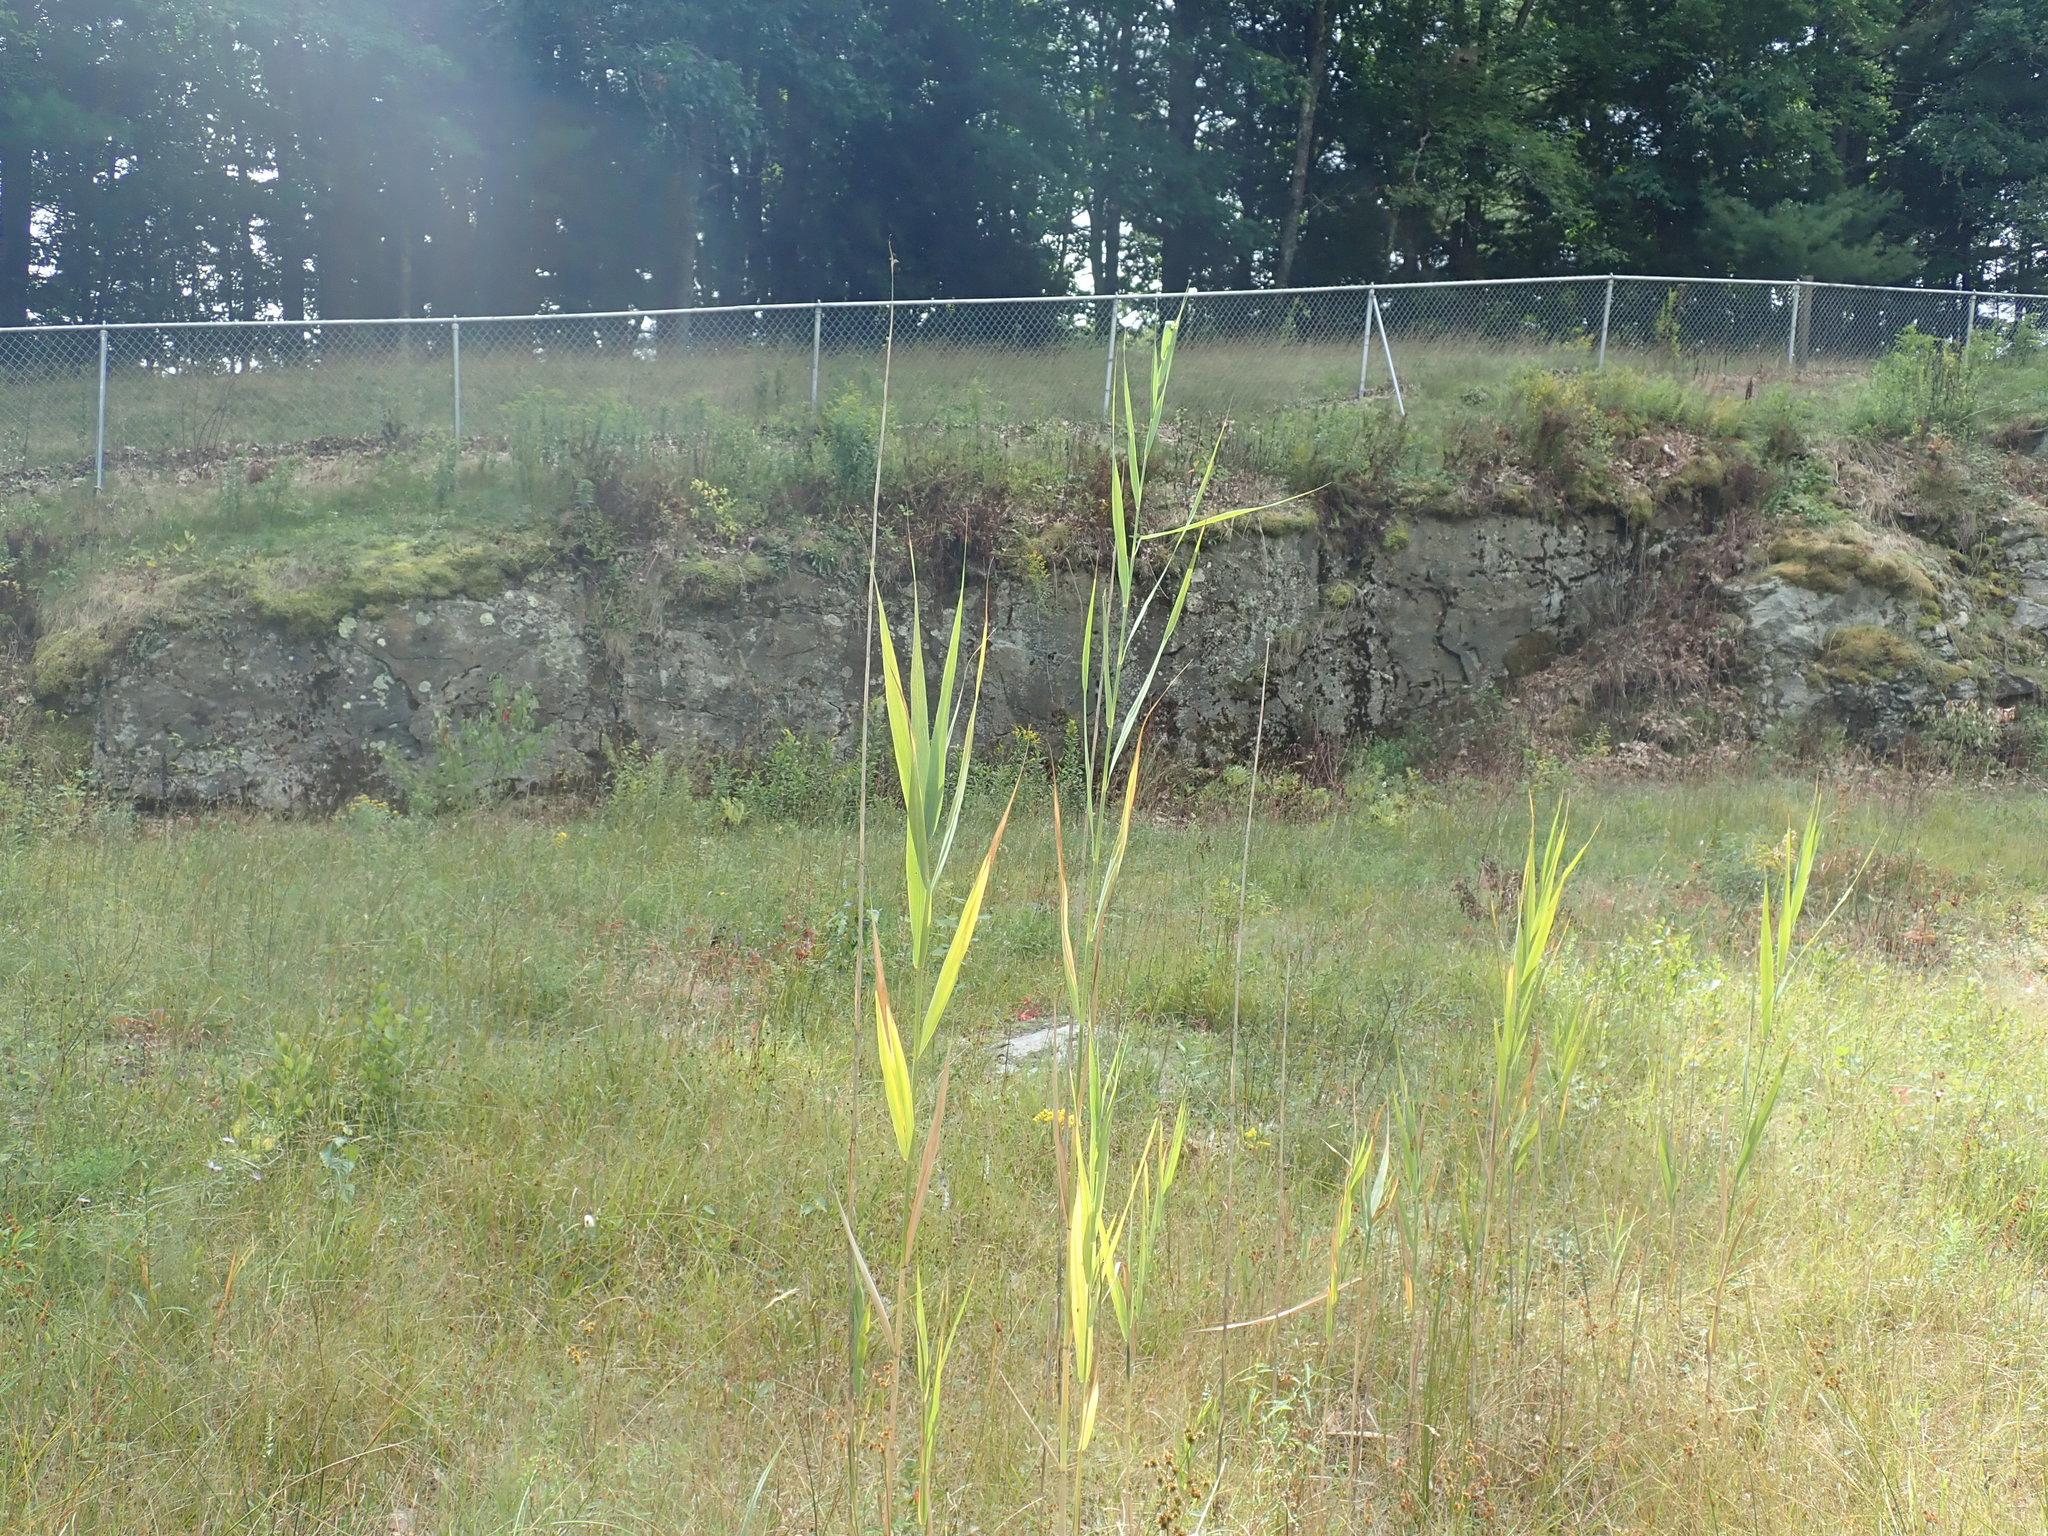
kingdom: Plantae
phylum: Tracheophyta
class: Liliopsida
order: Poales
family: Poaceae
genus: Phragmites
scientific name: Phragmites australis
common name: Common reed
